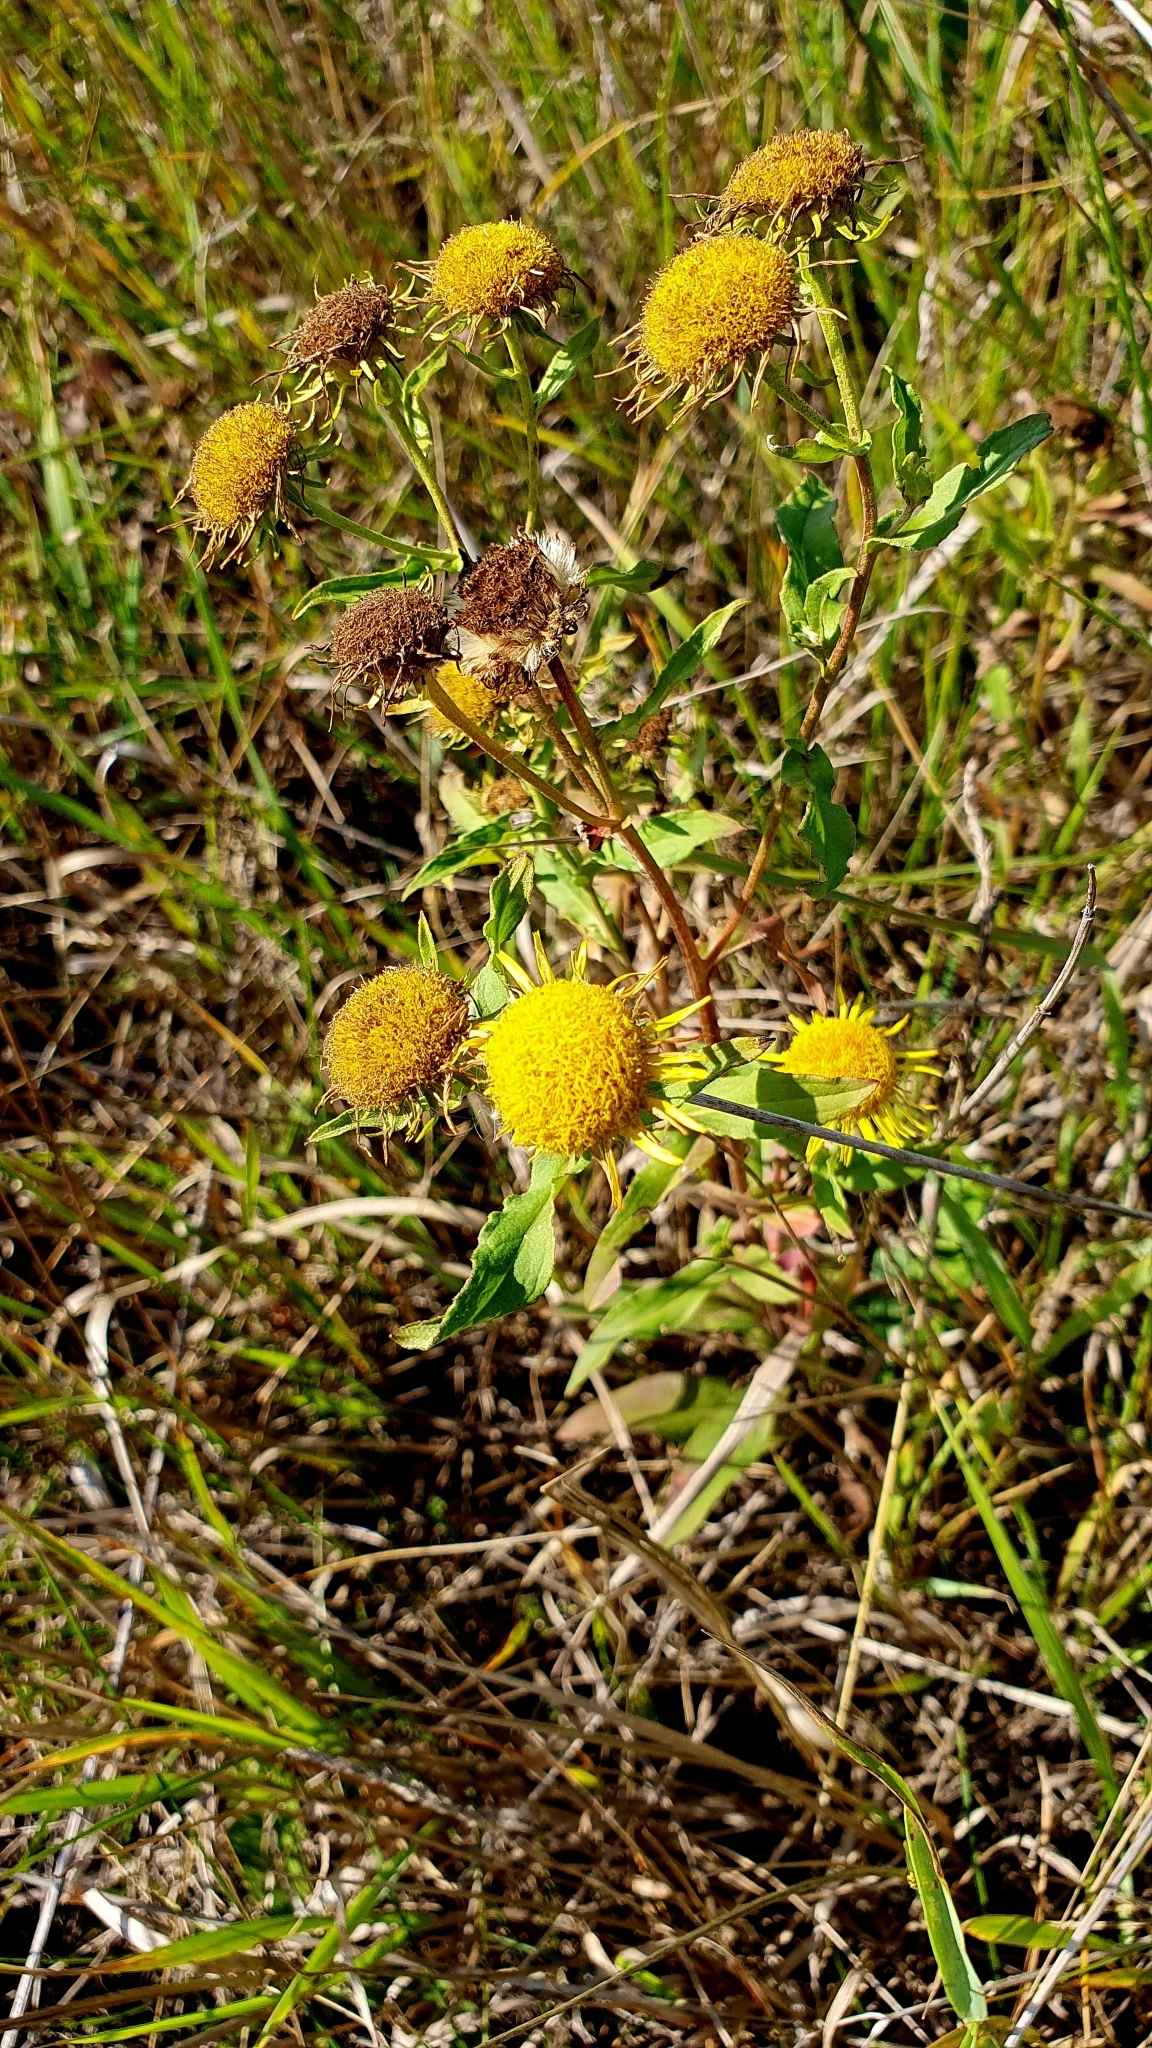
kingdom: Plantae
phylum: Tracheophyta
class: Magnoliopsida
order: Asterales
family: Asteraceae
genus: Pentanema
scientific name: Pentanema britannicum
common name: British elecampane
